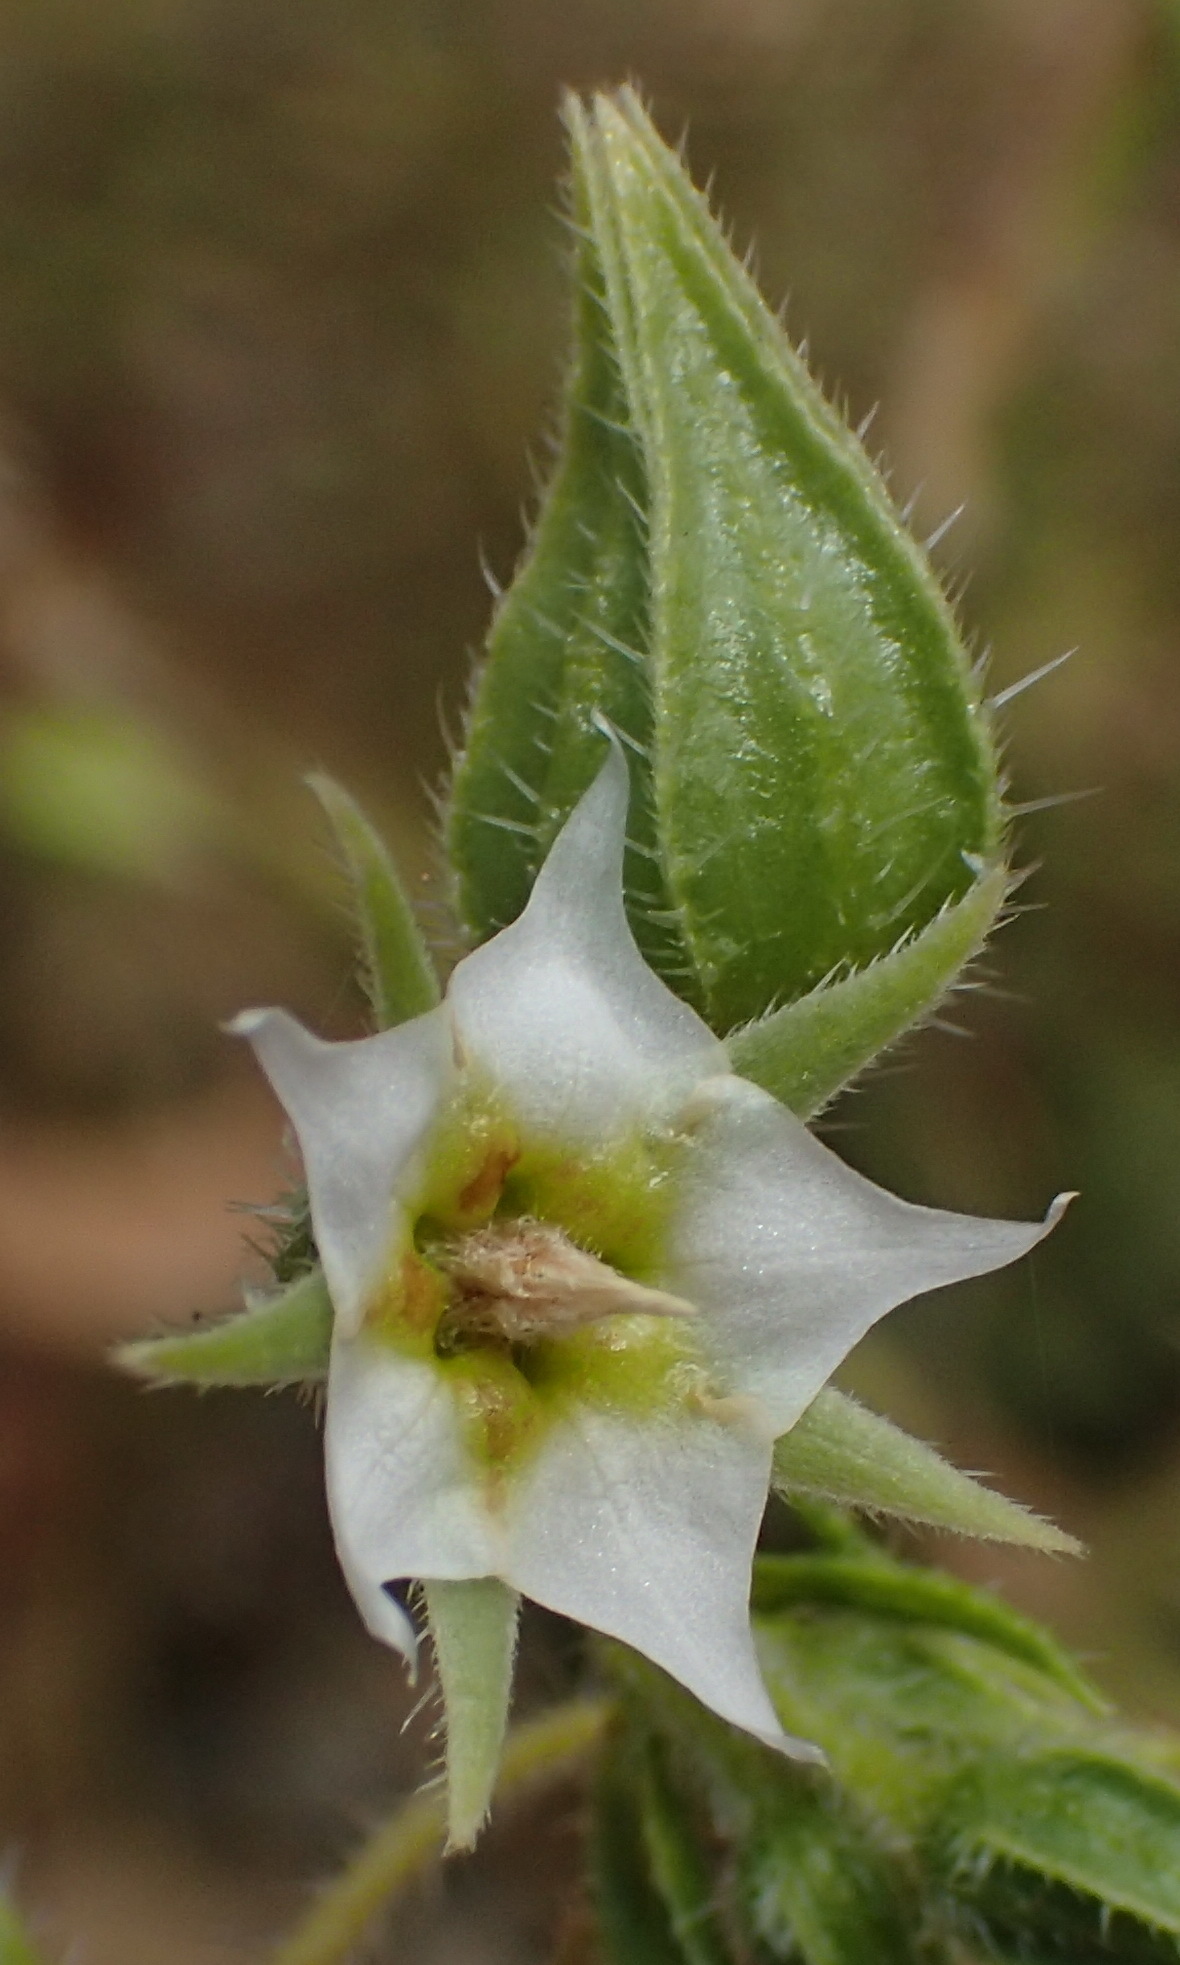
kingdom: Plantae
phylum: Tracheophyta
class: Magnoliopsida
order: Boraginales
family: Boraginaceae
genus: Trichodesma
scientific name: Trichodesma africanum
